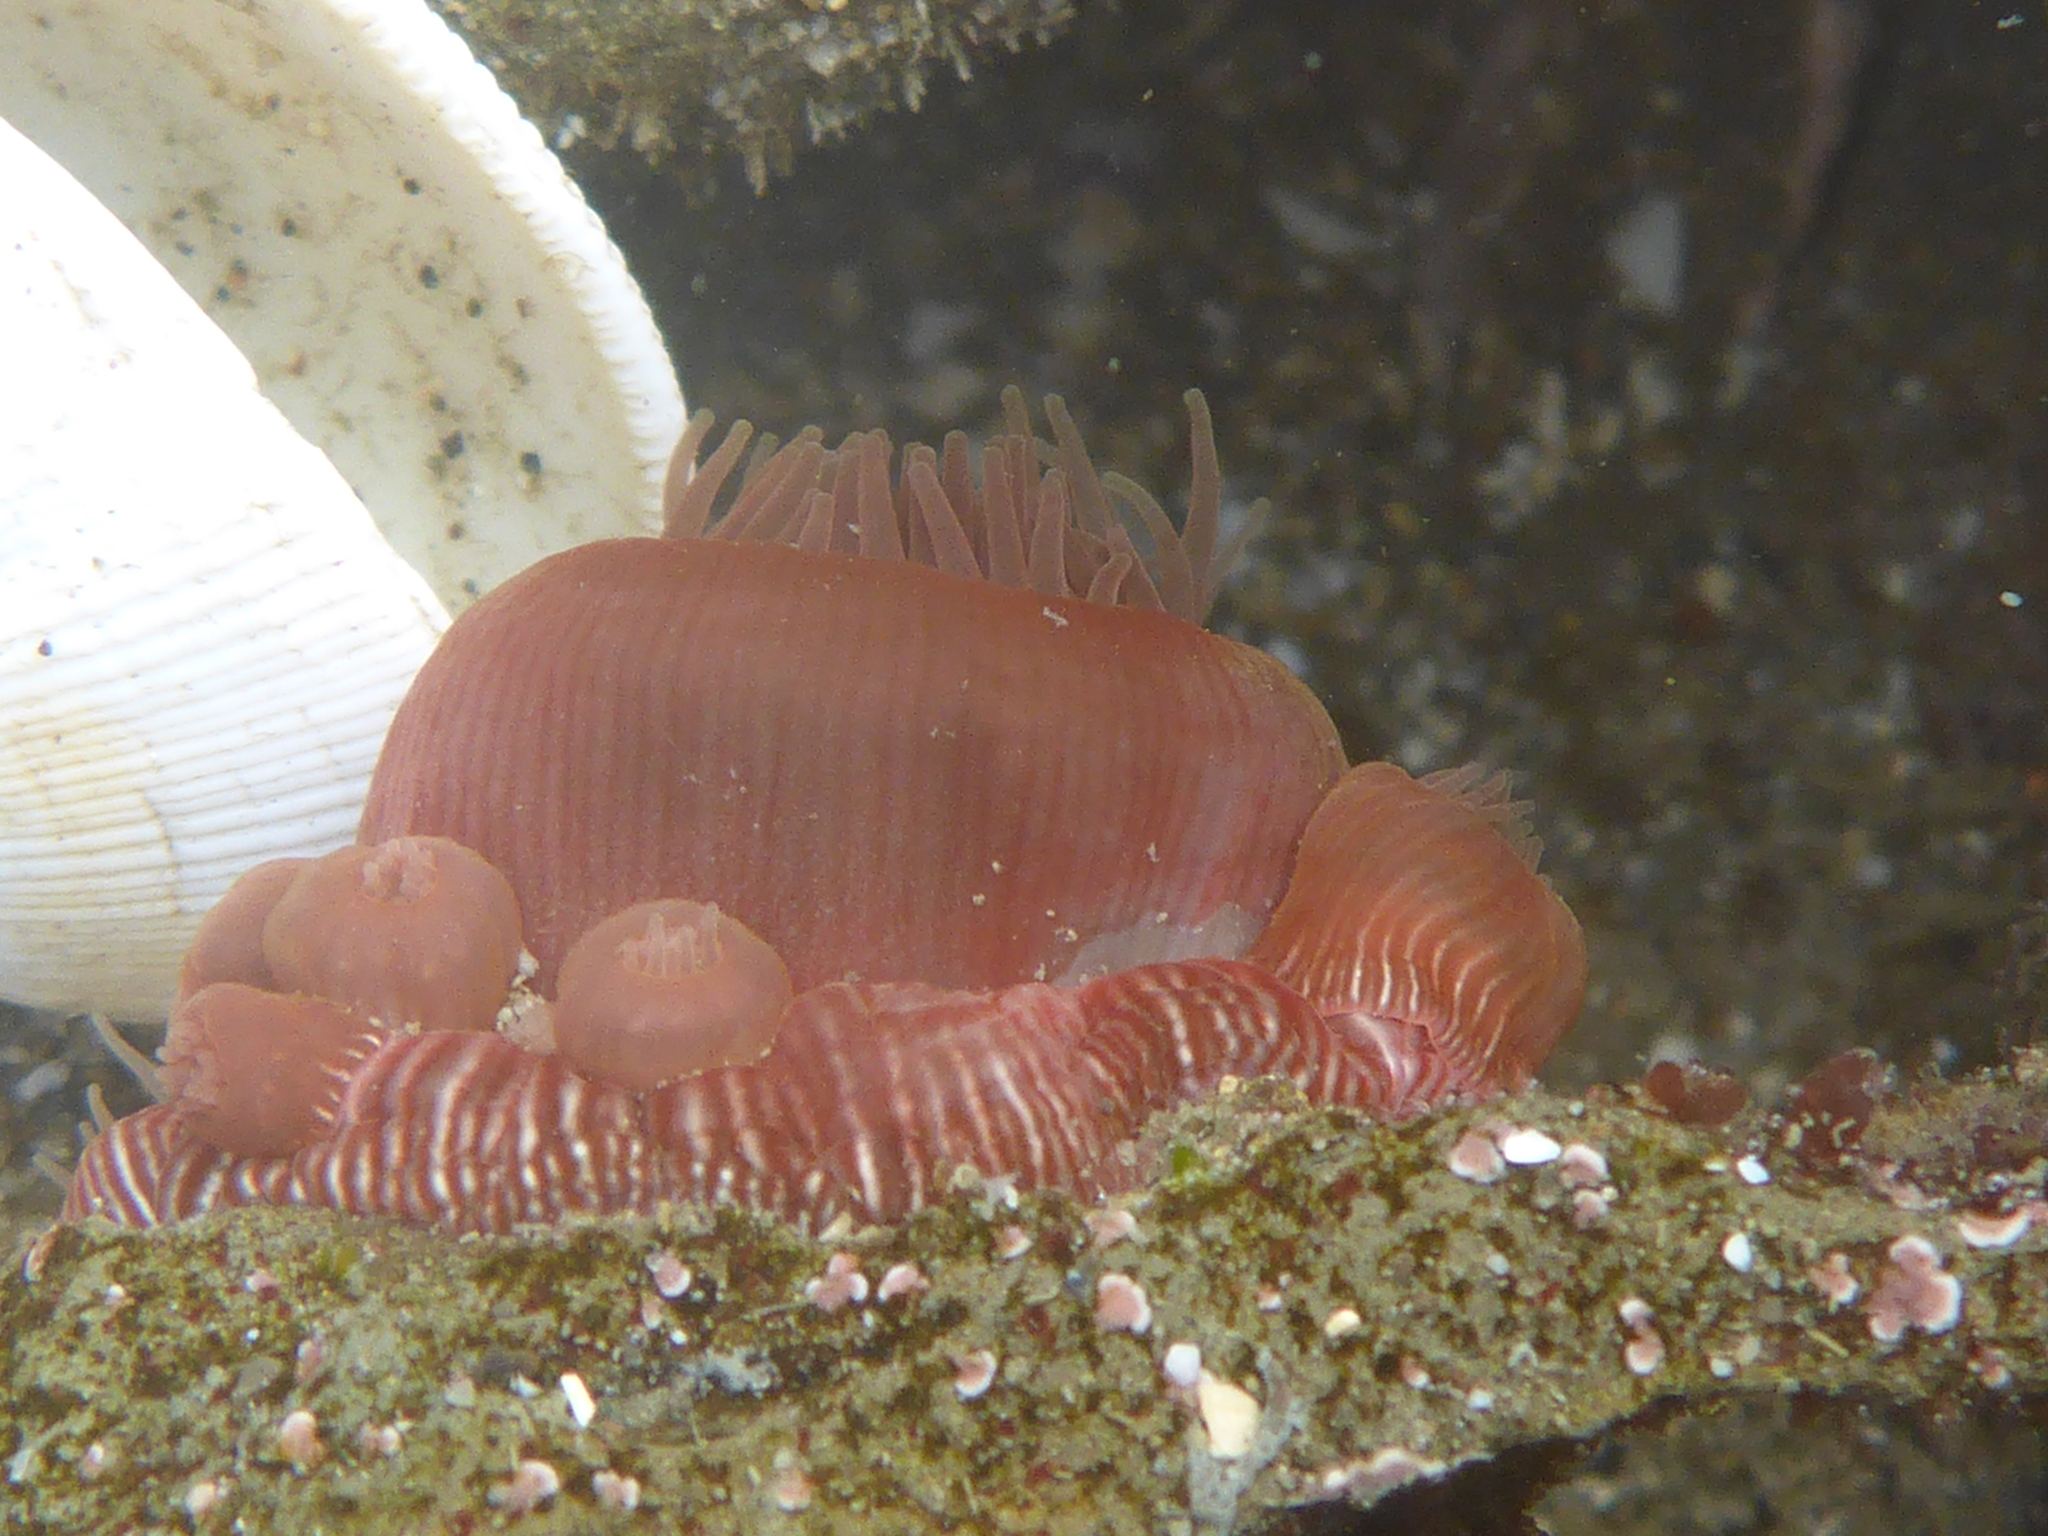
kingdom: Animalia
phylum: Cnidaria
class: Anthozoa
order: Actiniaria
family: Actiniidae
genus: Epiactis
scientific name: Epiactis prolifera
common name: Brooding anemone
